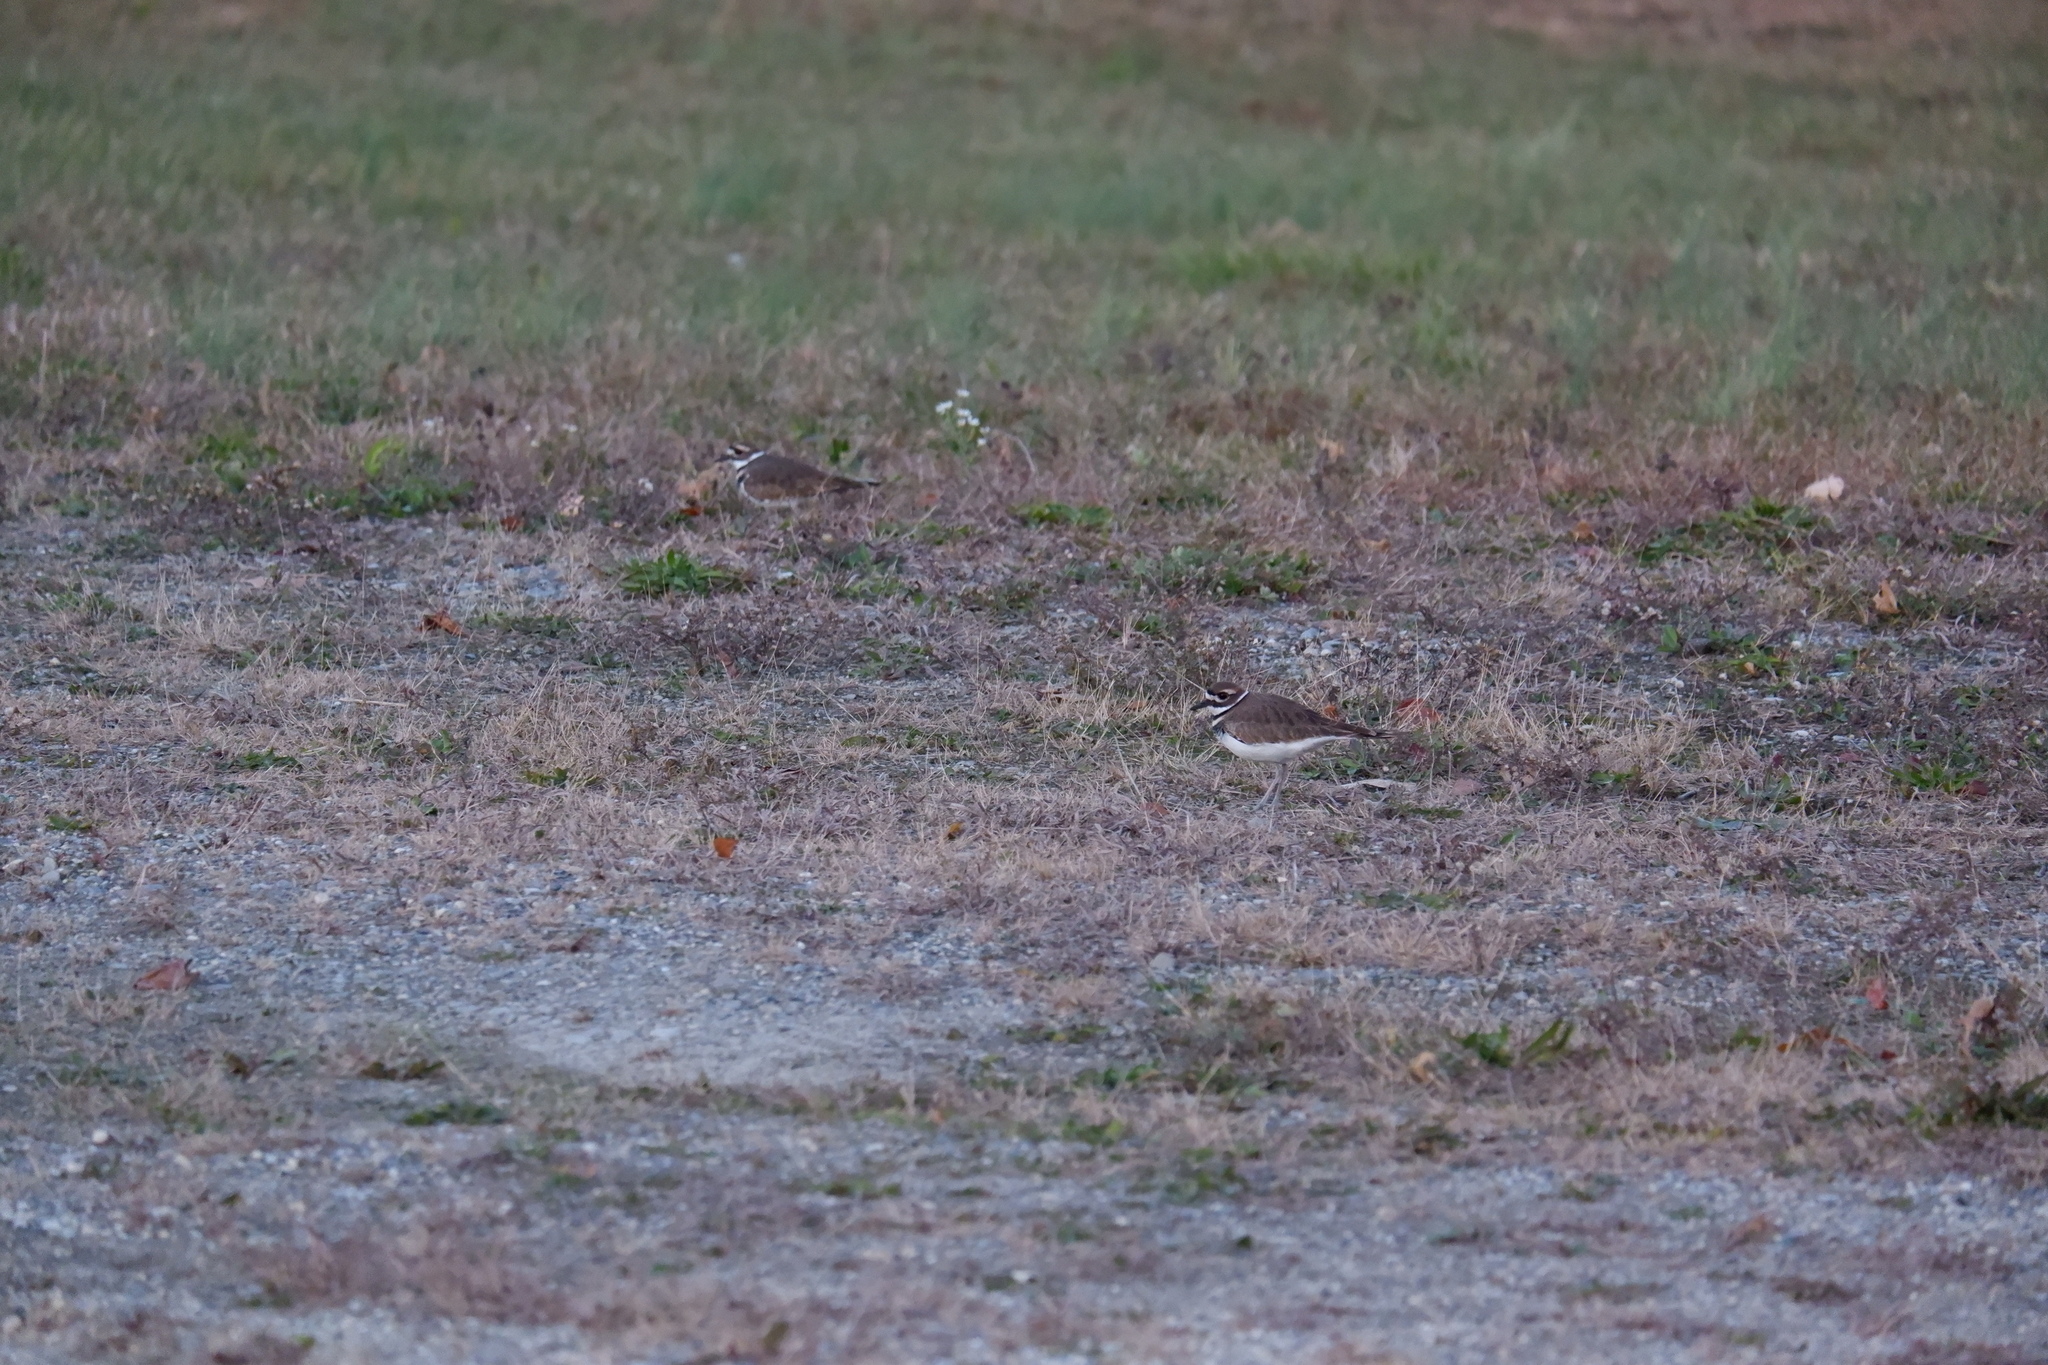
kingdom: Animalia
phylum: Chordata
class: Aves
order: Charadriiformes
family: Charadriidae
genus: Charadrius
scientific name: Charadrius vociferus
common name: Killdeer
